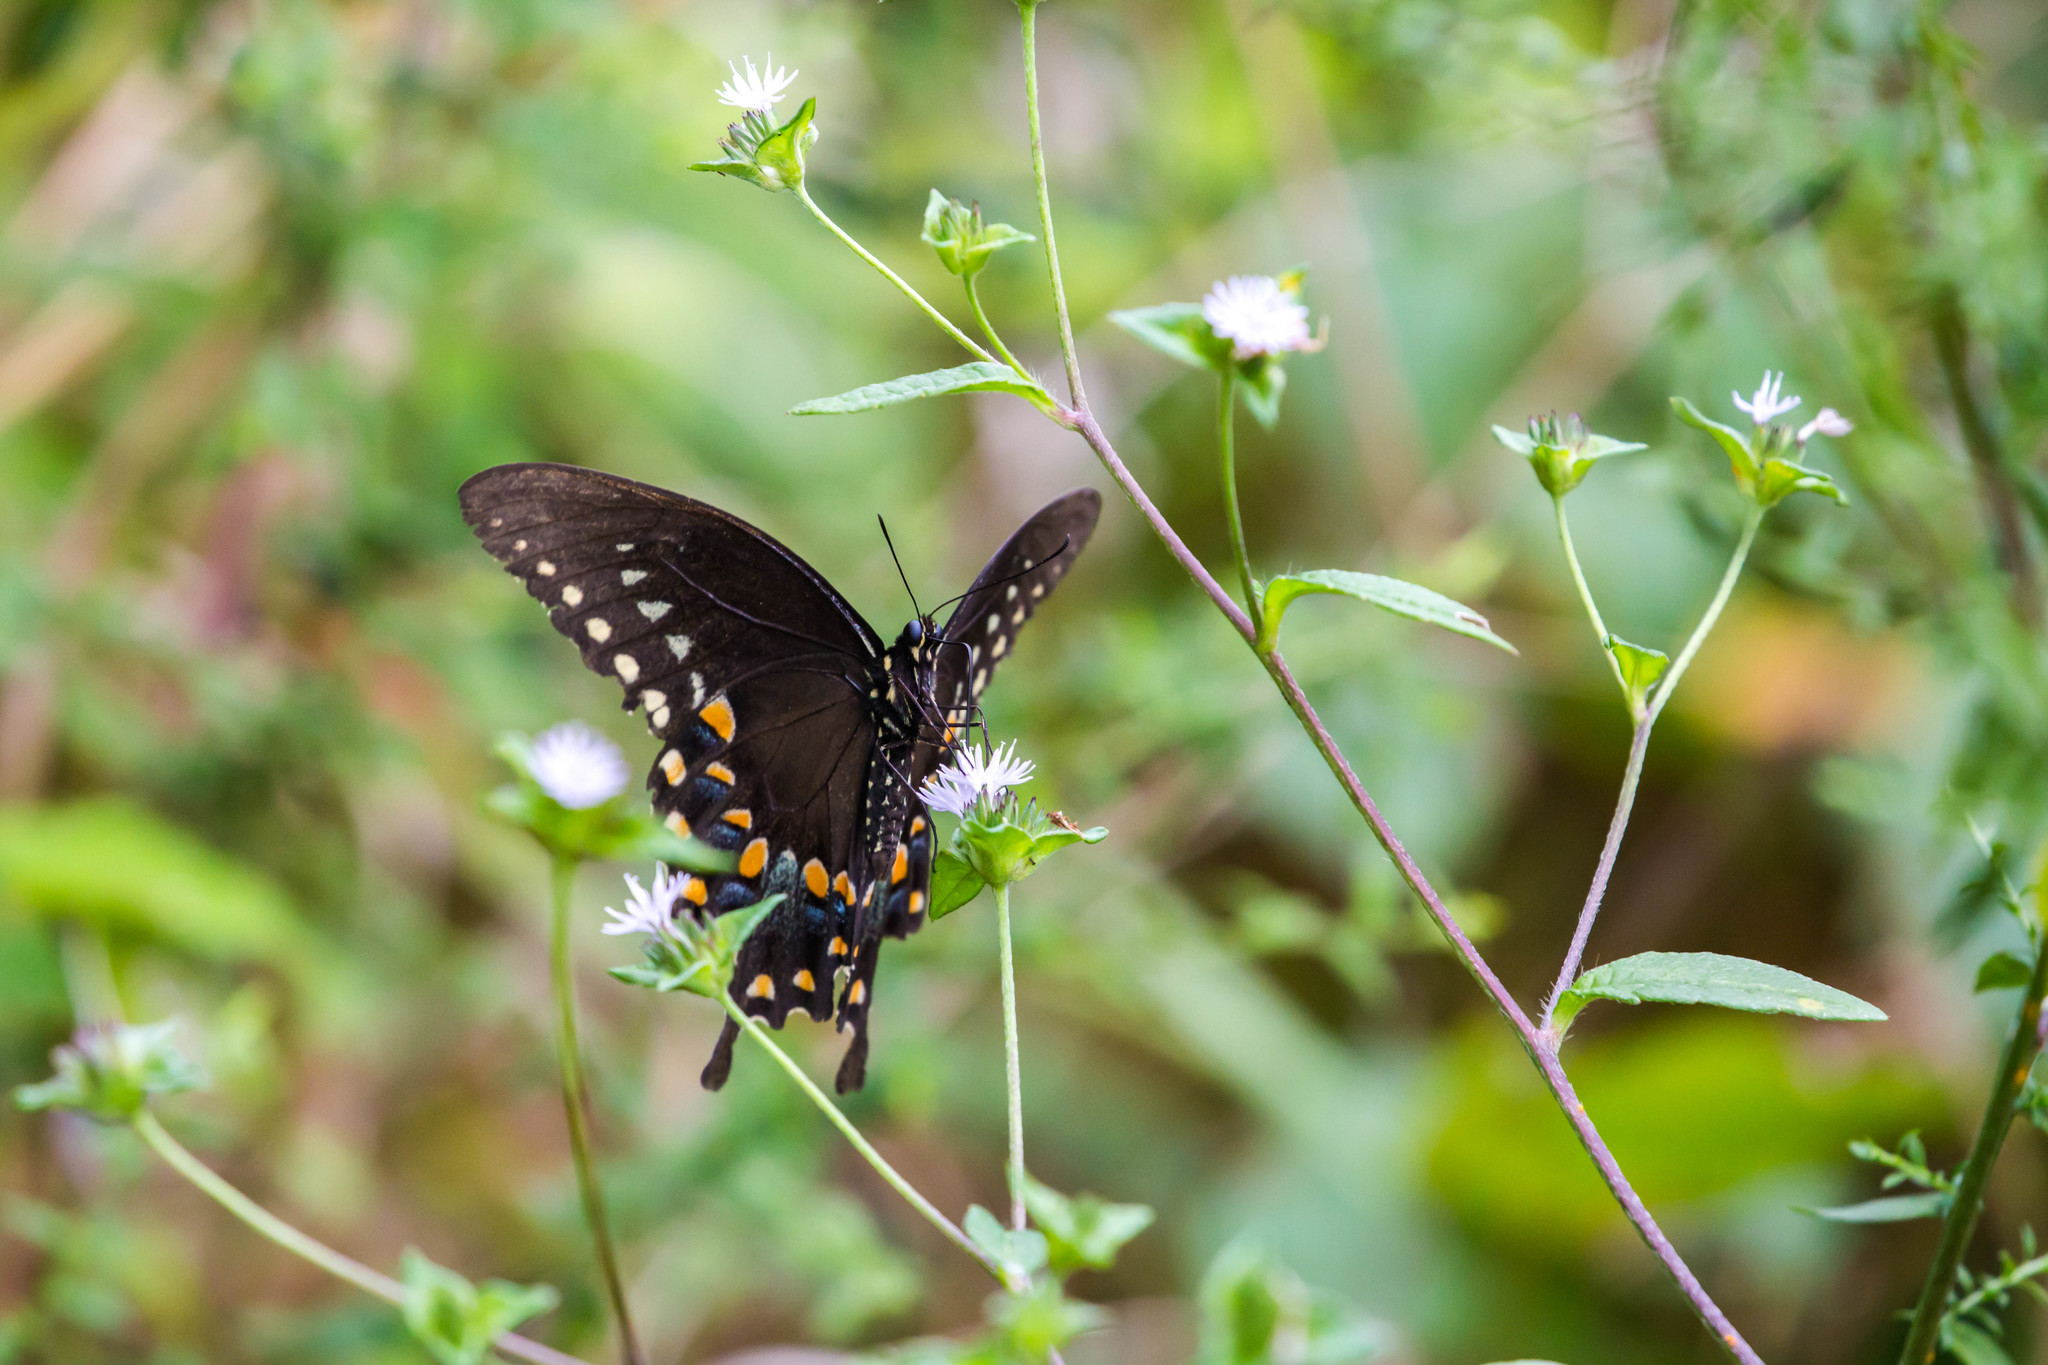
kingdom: Animalia
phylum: Arthropoda
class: Insecta
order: Lepidoptera
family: Papilionidae
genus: Papilio
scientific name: Papilio troilus
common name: Spicebush swallowtail
